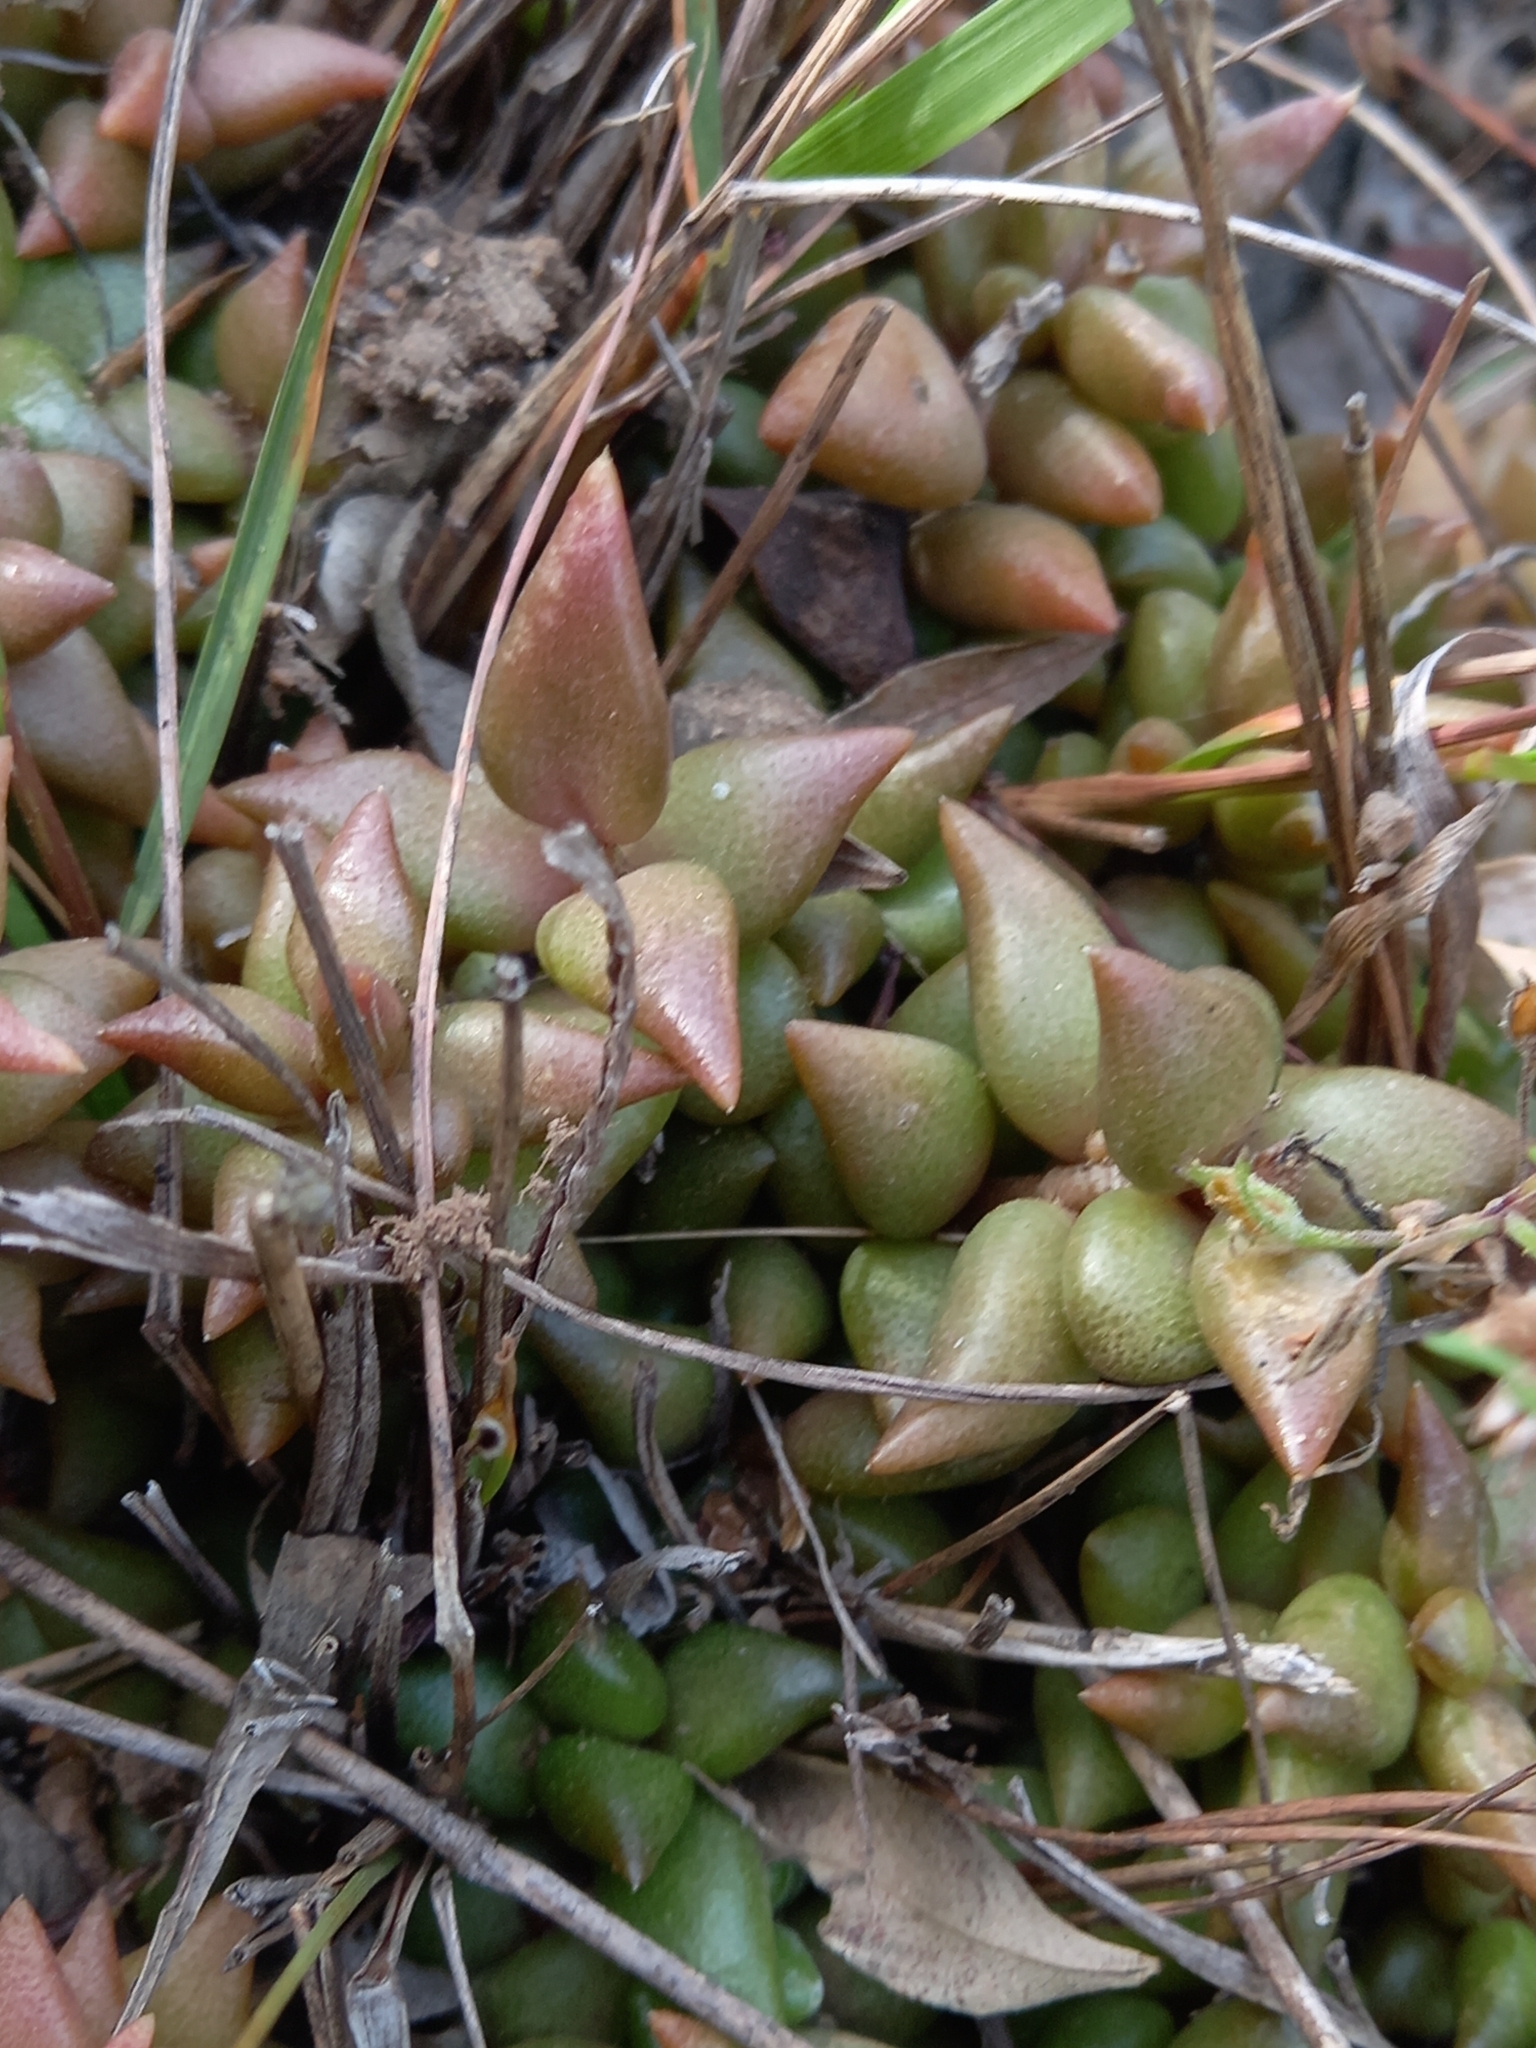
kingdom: Plantae
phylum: Tracheophyta
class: Magnoliopsida
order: Caryophyllales
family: Anacampserotaceae
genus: Anacampseros
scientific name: Anacampseros telephiastrum
